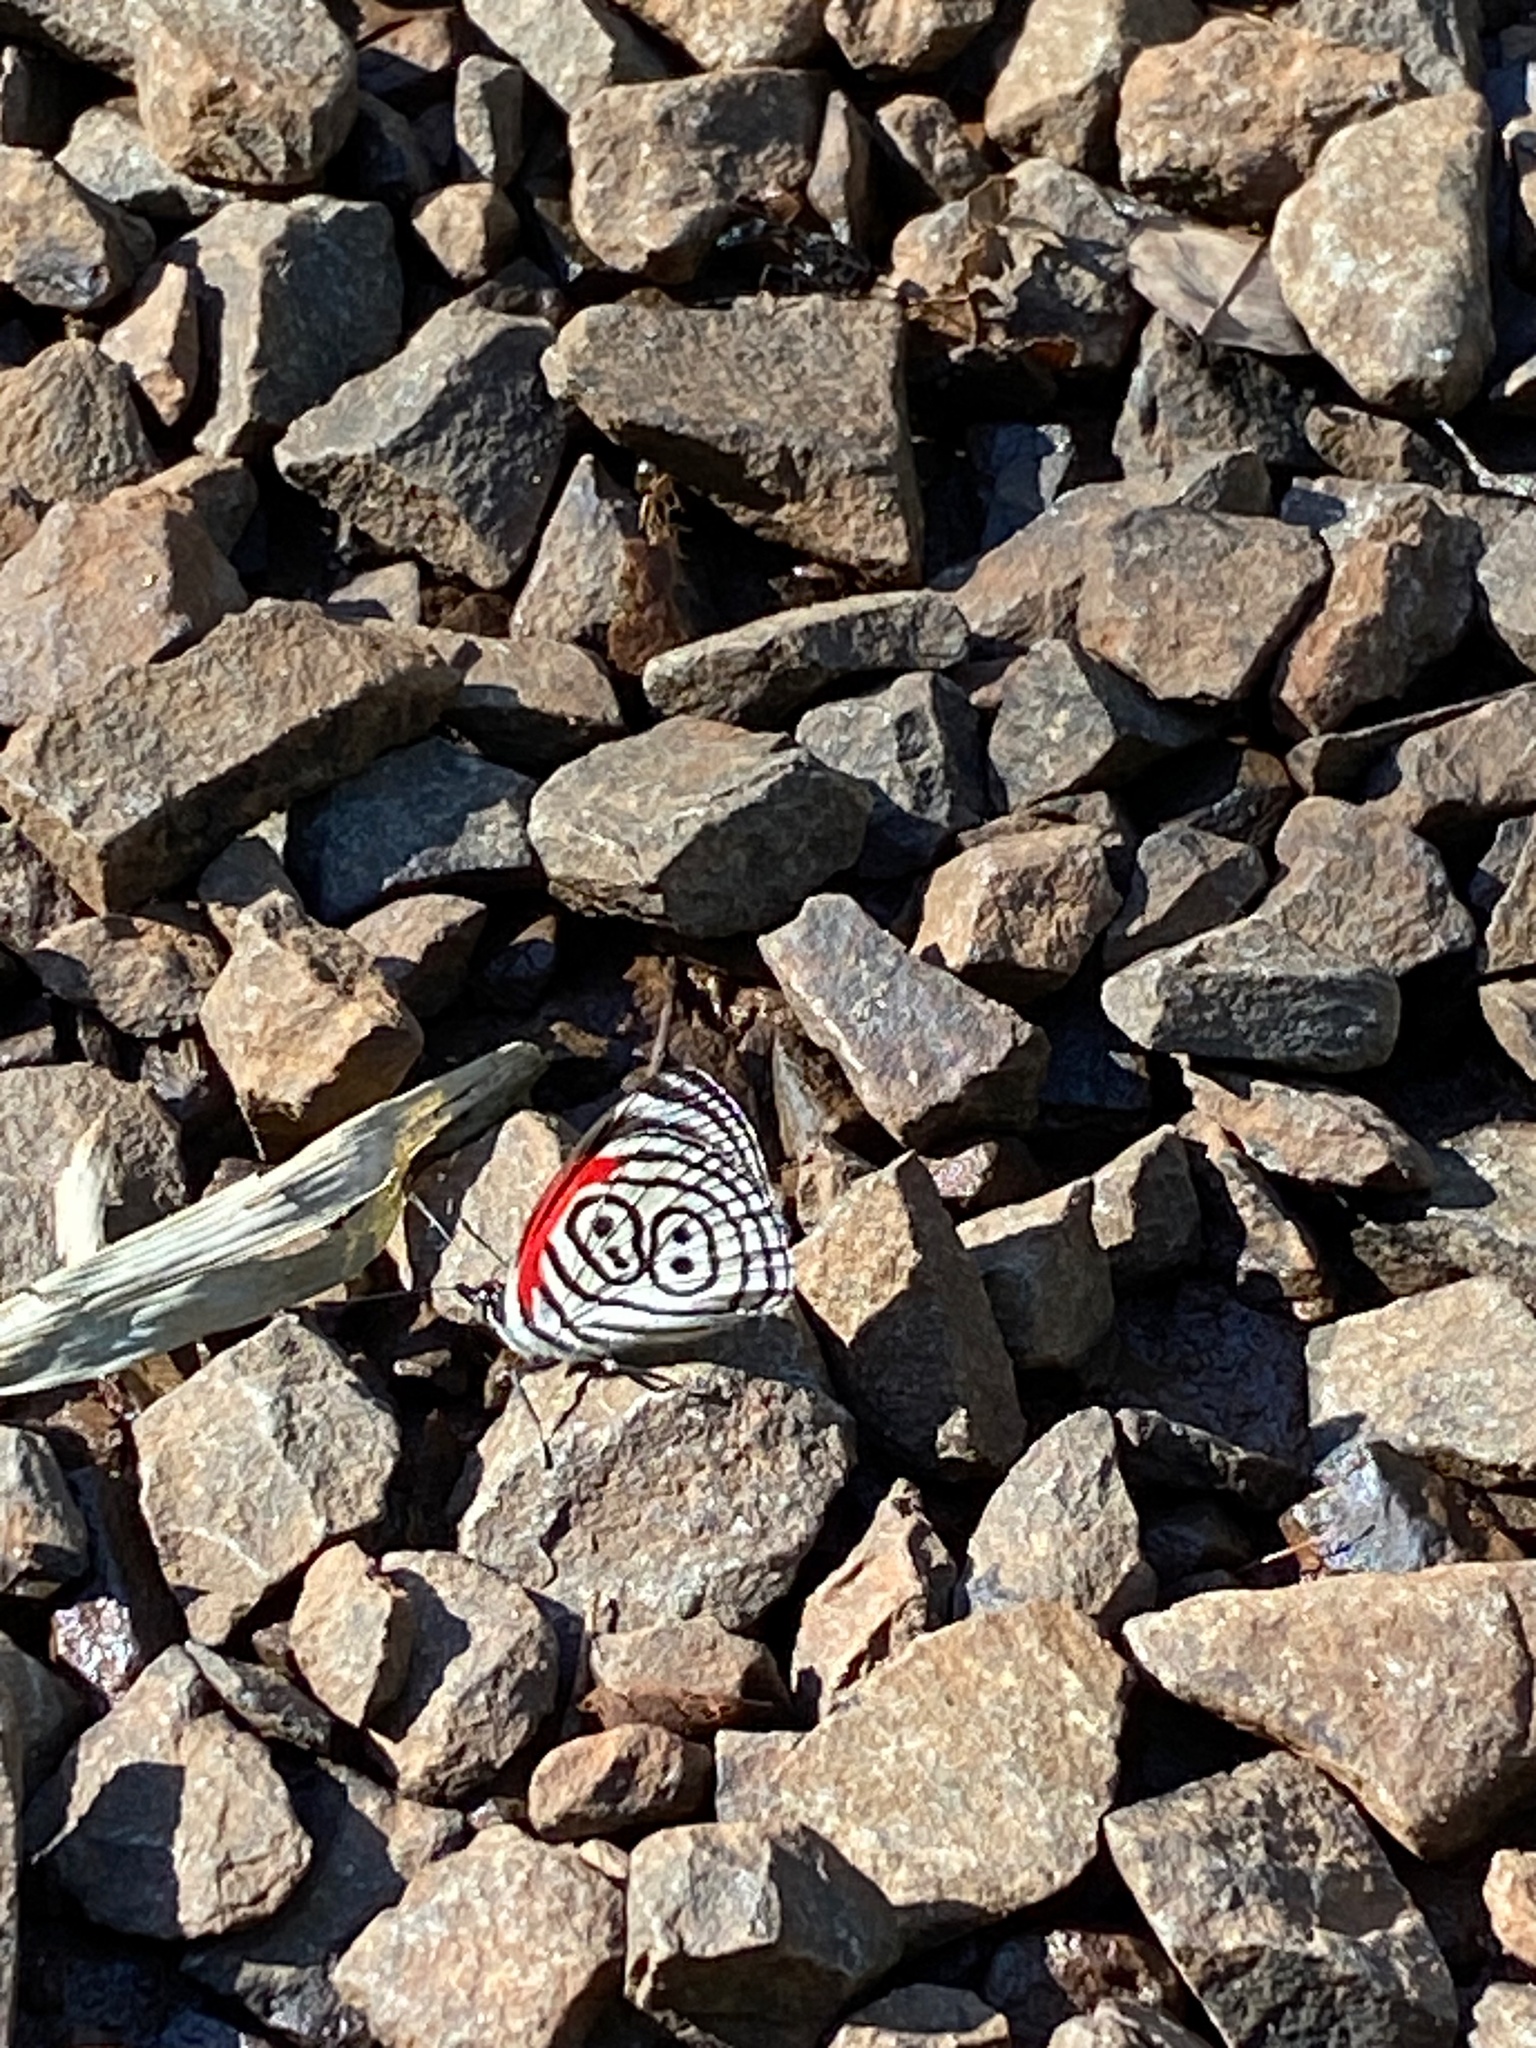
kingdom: Animalia
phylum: Arthropoda
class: Insecta
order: Lepidoptera
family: Nymphalidae
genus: Diaethria
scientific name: Diaethria clymena
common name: Widespread eighty-eight
